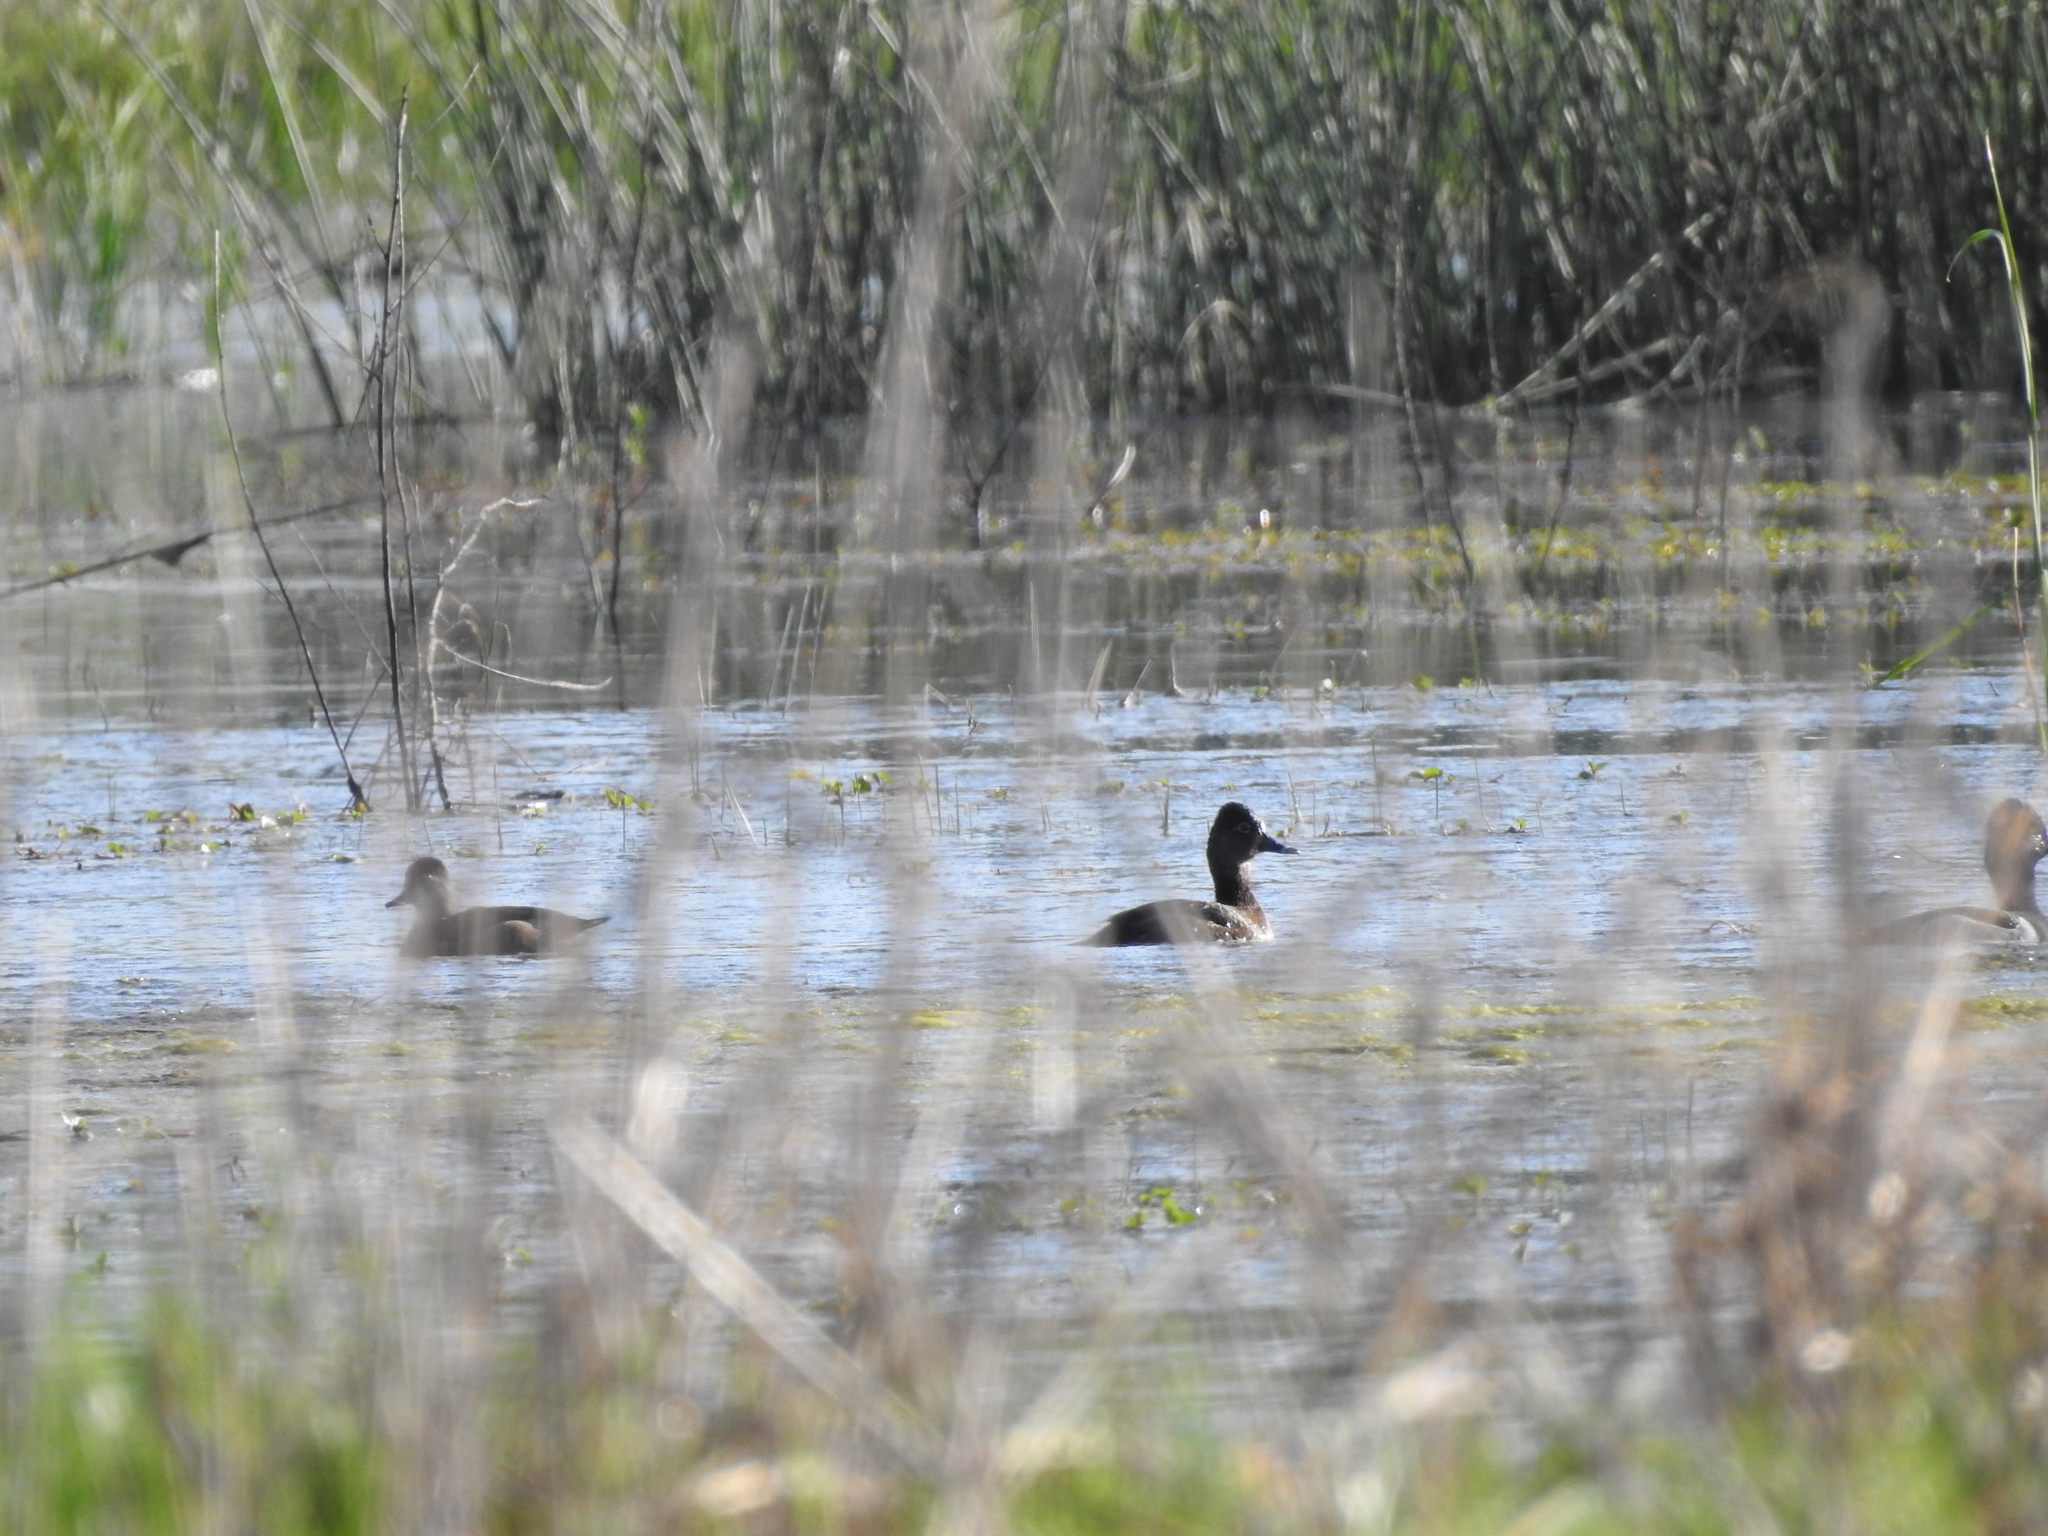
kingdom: Animalia
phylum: Chordata
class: Aves
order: Anseriformes
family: Anatidae
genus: Aythya
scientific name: Aythya collaris
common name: Ring-necked duck
